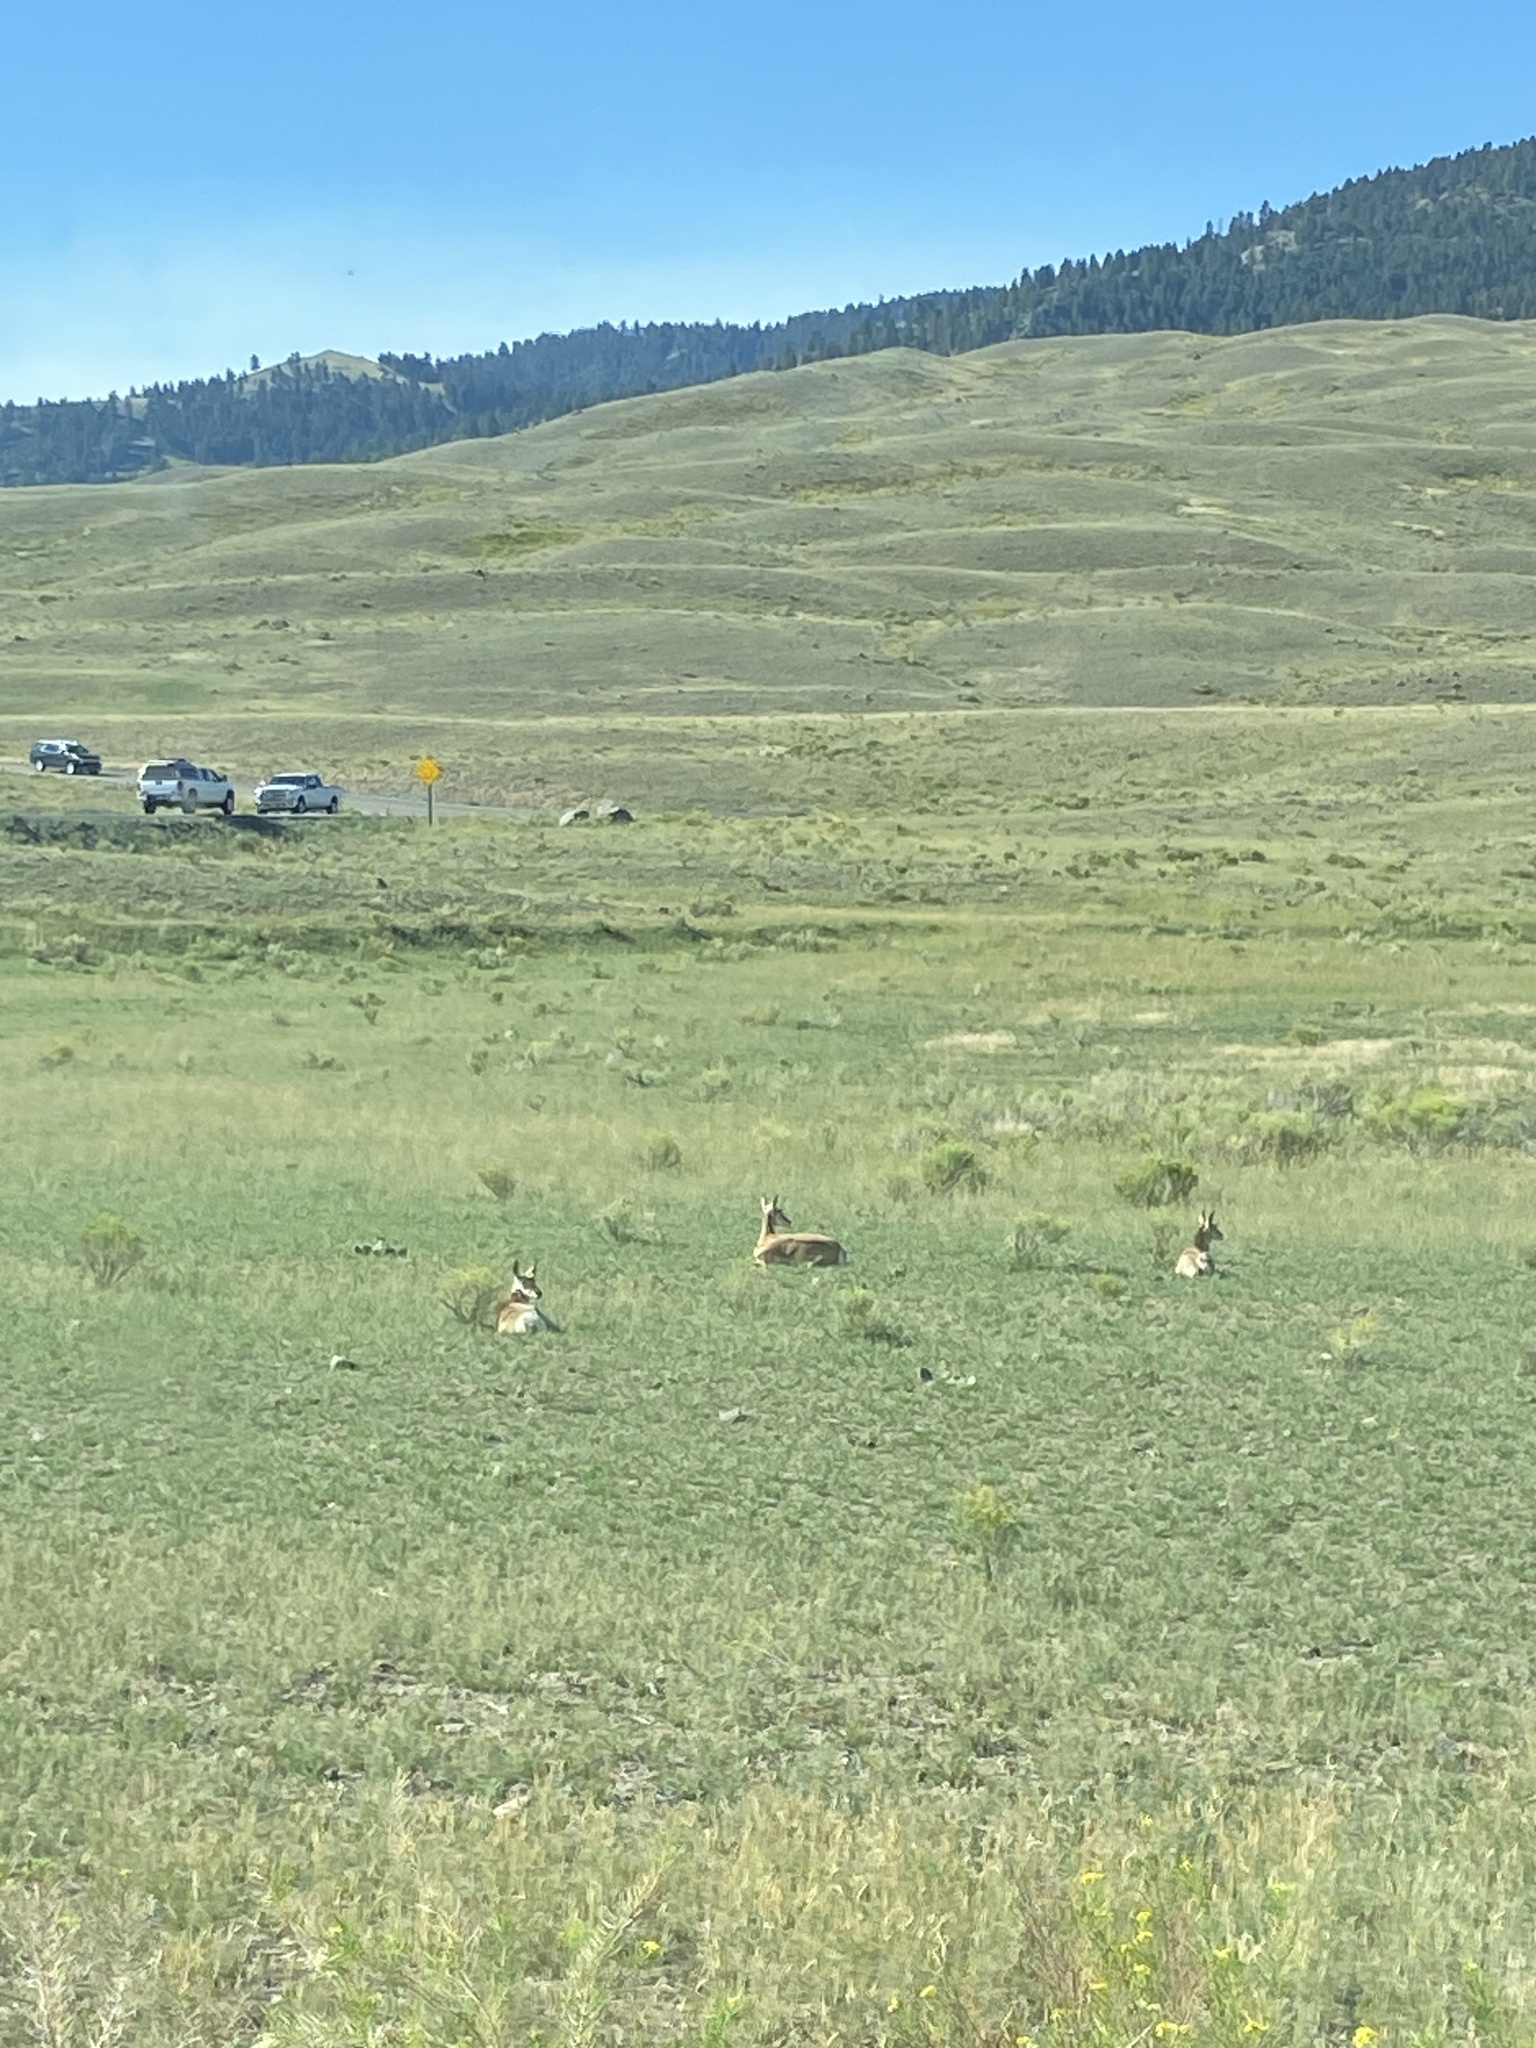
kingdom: Animalia
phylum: Chordata
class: Mammalia
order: Artiodactyla
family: Antilocapridae
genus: Antilocapra
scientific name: Antilocapra americana
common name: Pronghorn
